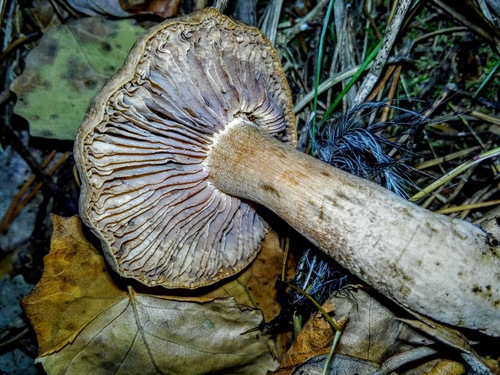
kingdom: Fungi
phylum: Basidiomycota
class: Agaricomycetes
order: Agaricales
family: Tricholomataceae
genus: Tricholoma
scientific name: Tricholoma
